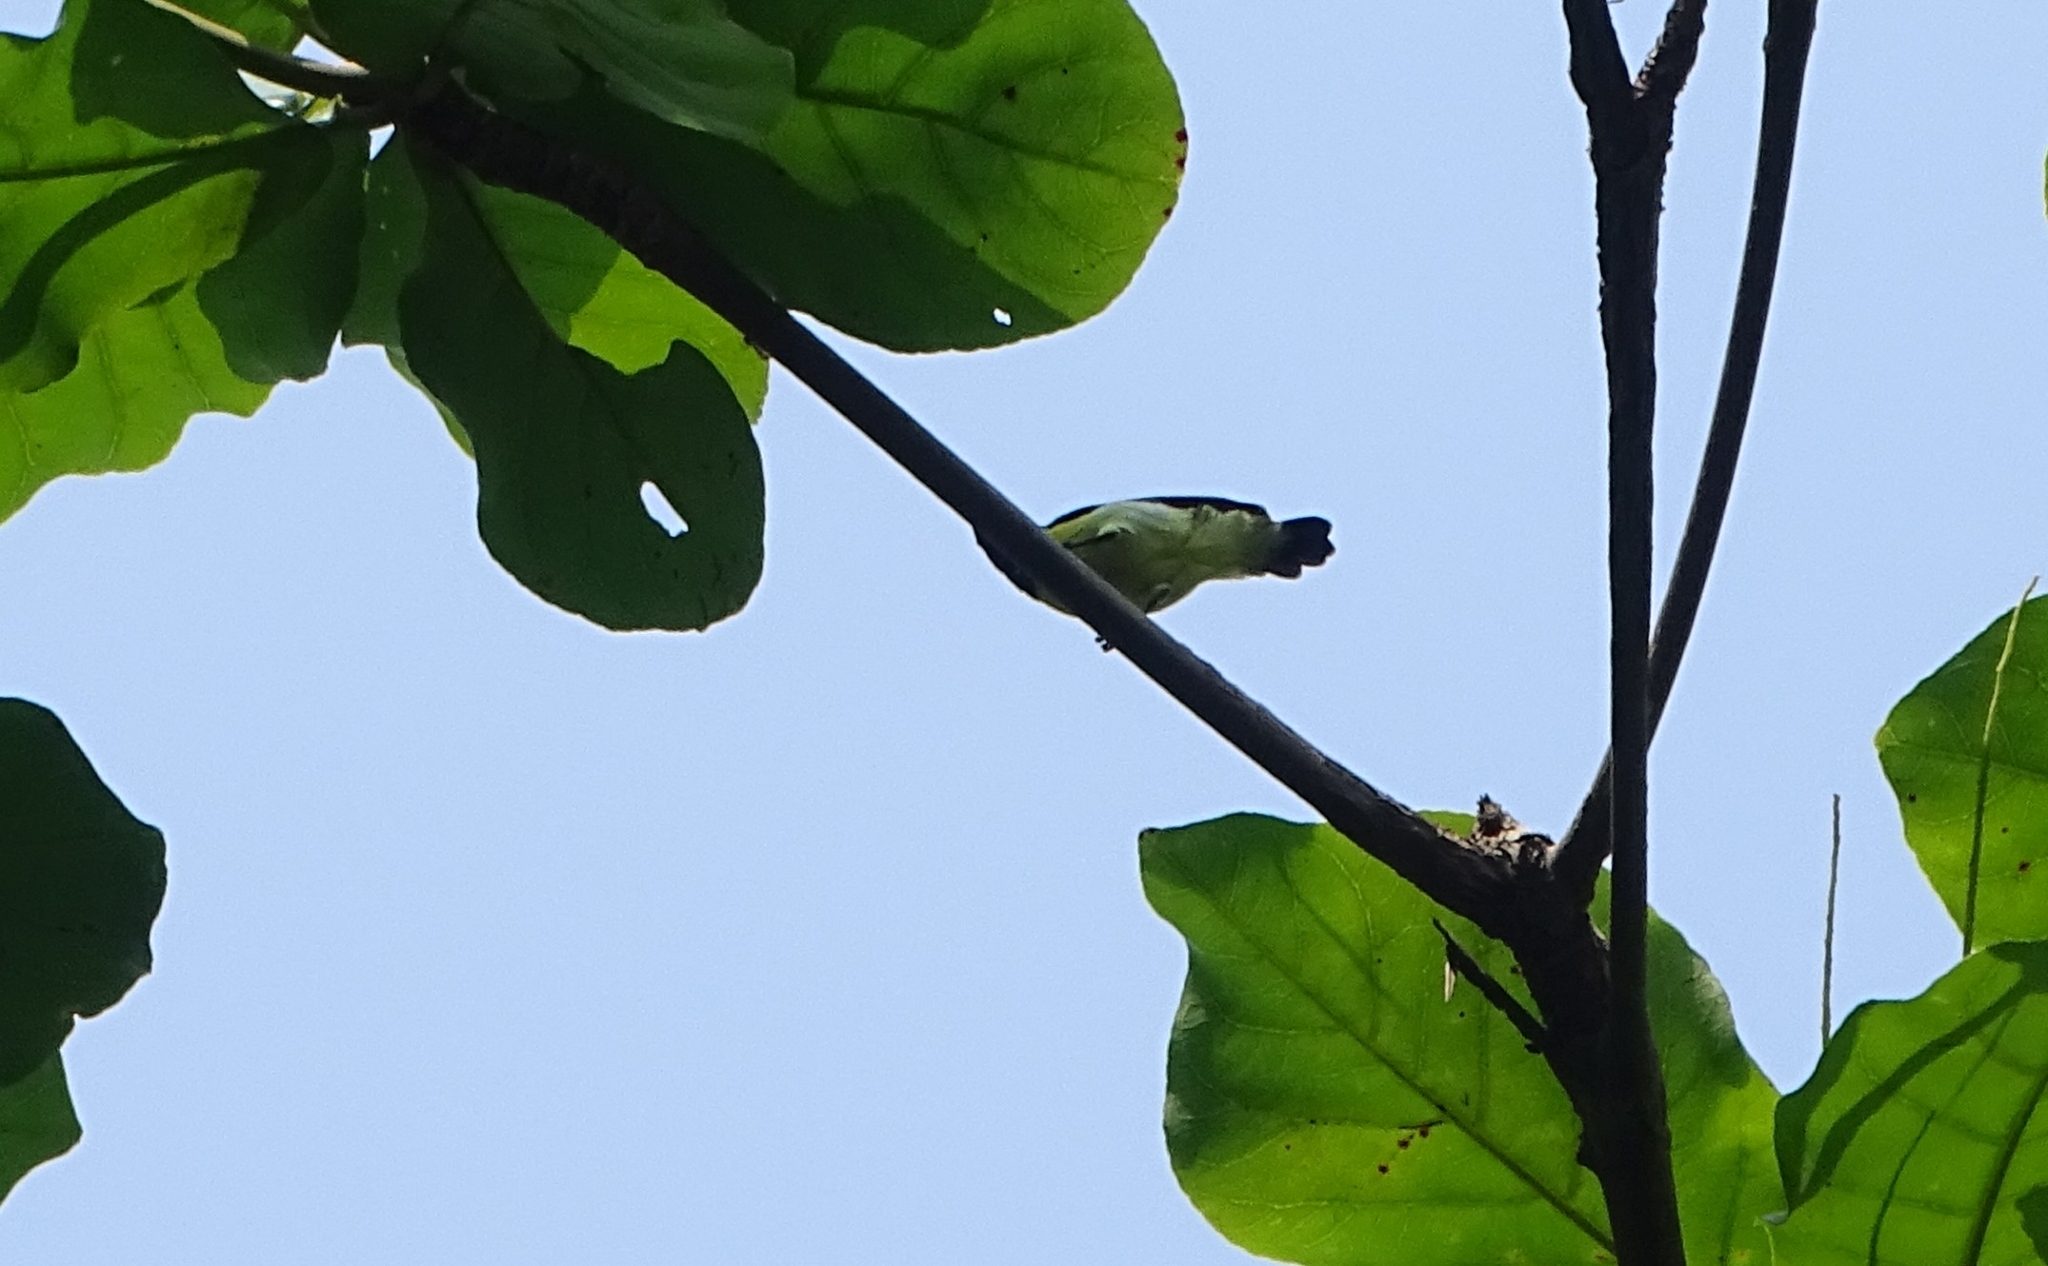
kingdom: Animalia
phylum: Chordata
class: Aves
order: Passeriformes
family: Nectariniidae
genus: Leptocoma
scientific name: Leptocoma zeylonica
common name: Purple-rumped sunbird
